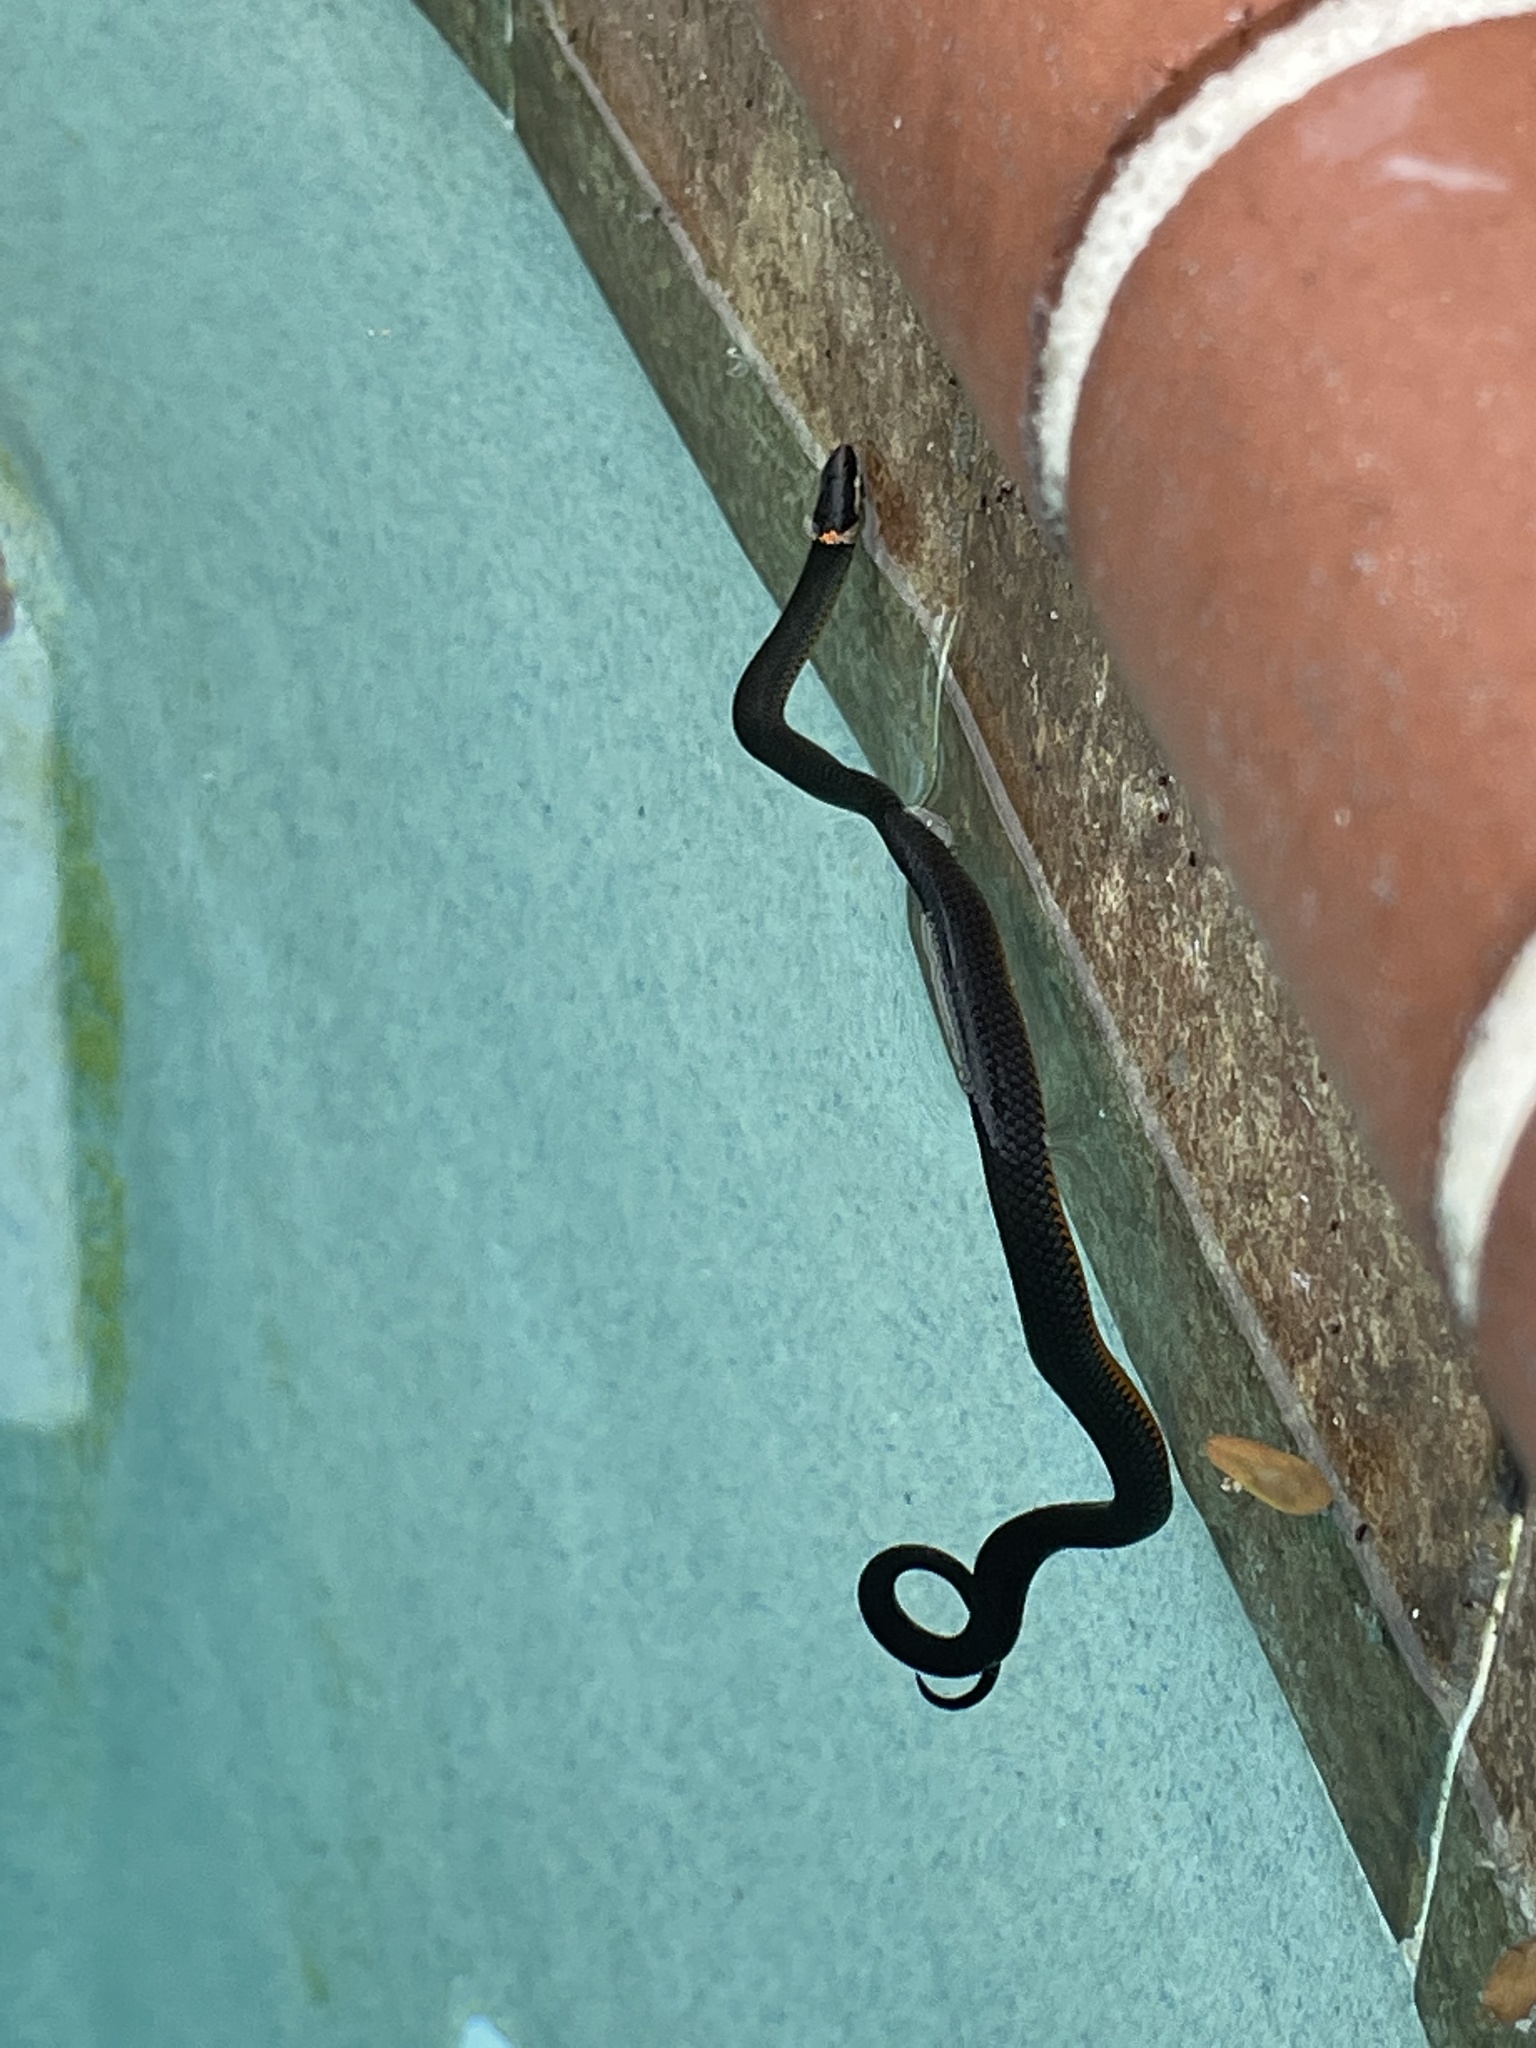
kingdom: Animalia
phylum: Chordata
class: Squamata
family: Colubridae
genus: Diadophis
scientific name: Diadophis punctatus
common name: Ringneck snake
